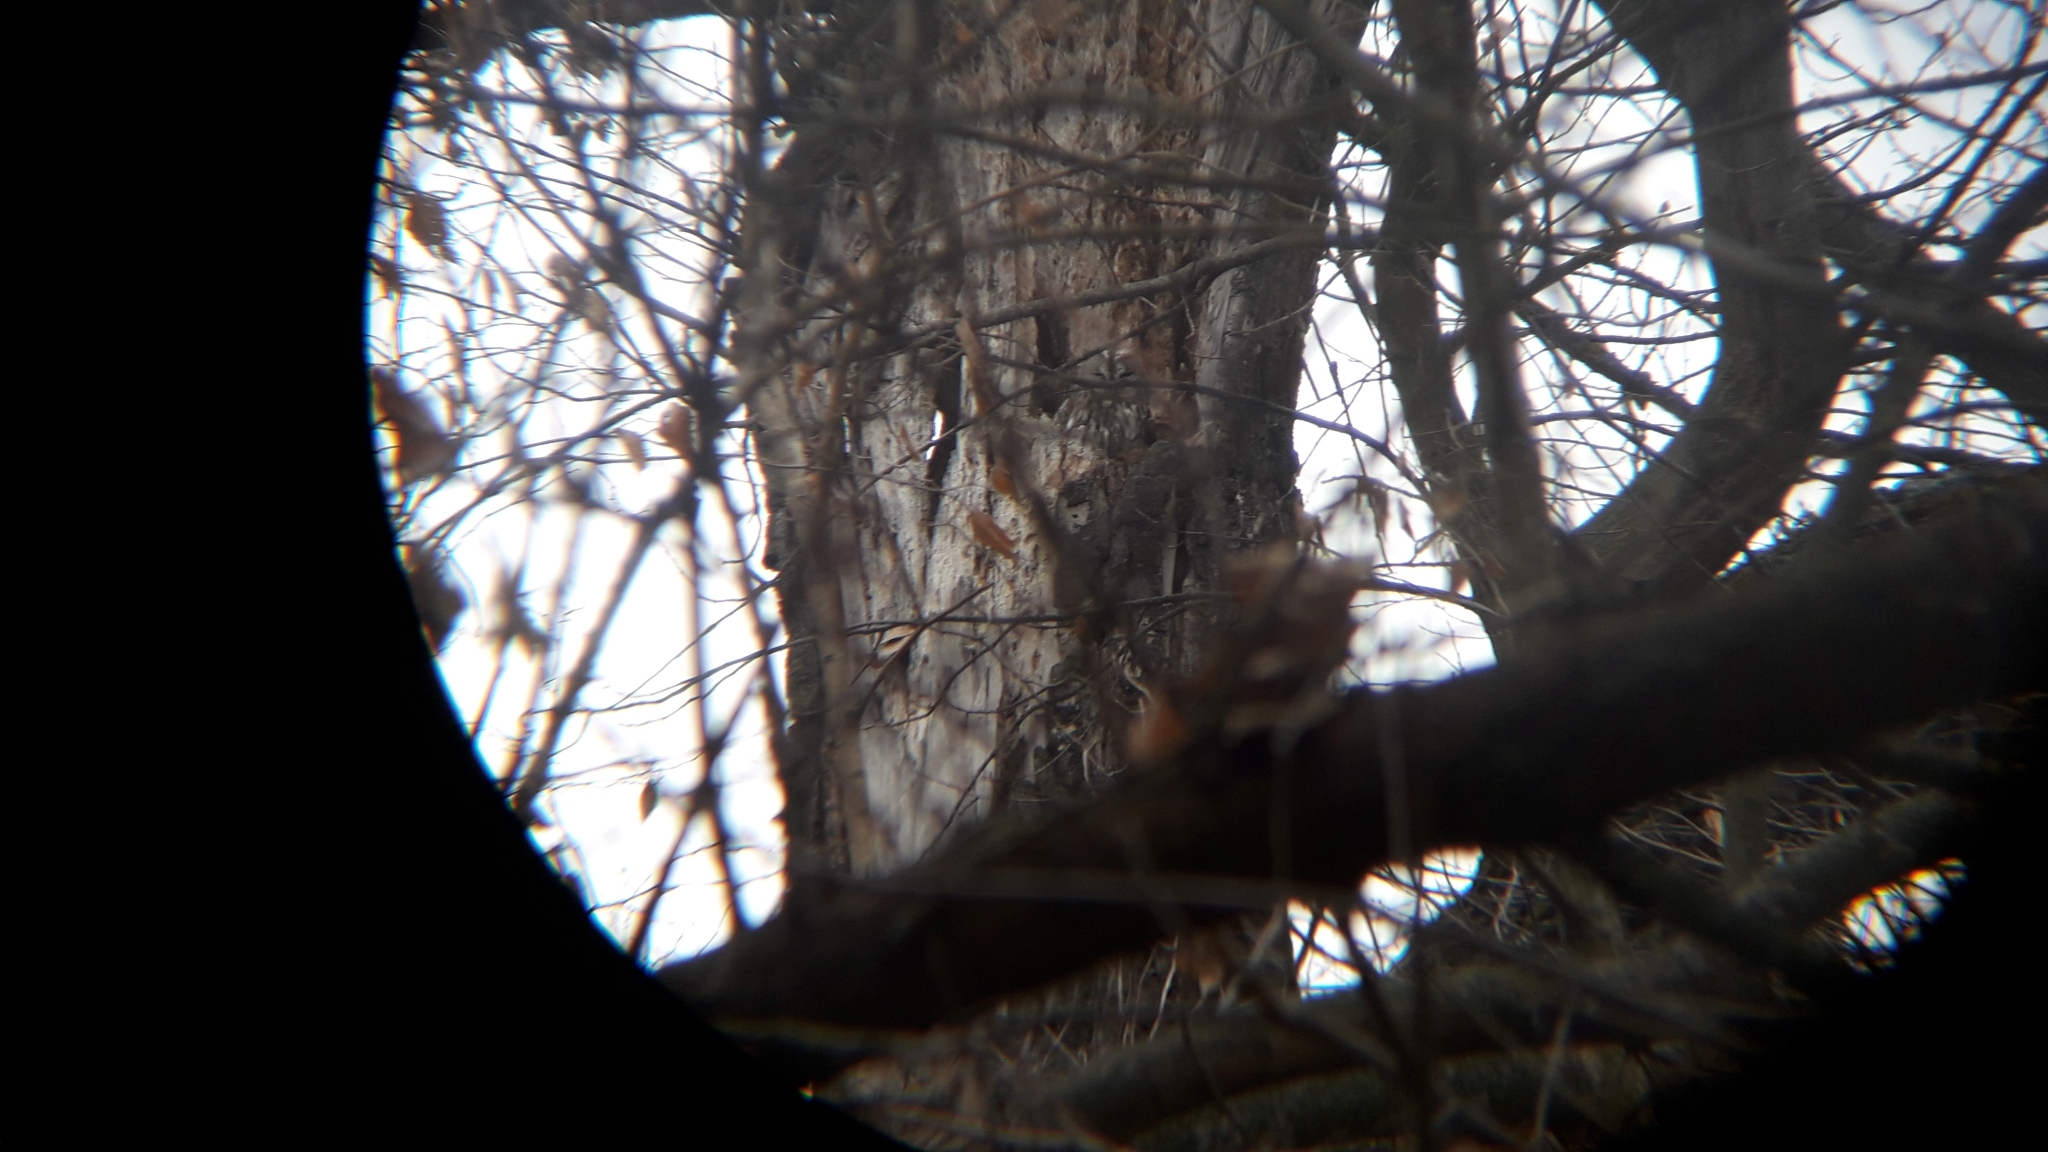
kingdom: Animalia
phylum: Chordata
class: Aves
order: Strigiformes
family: Strigidae
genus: Strix
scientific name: Strix aluco
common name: Tawny owl
